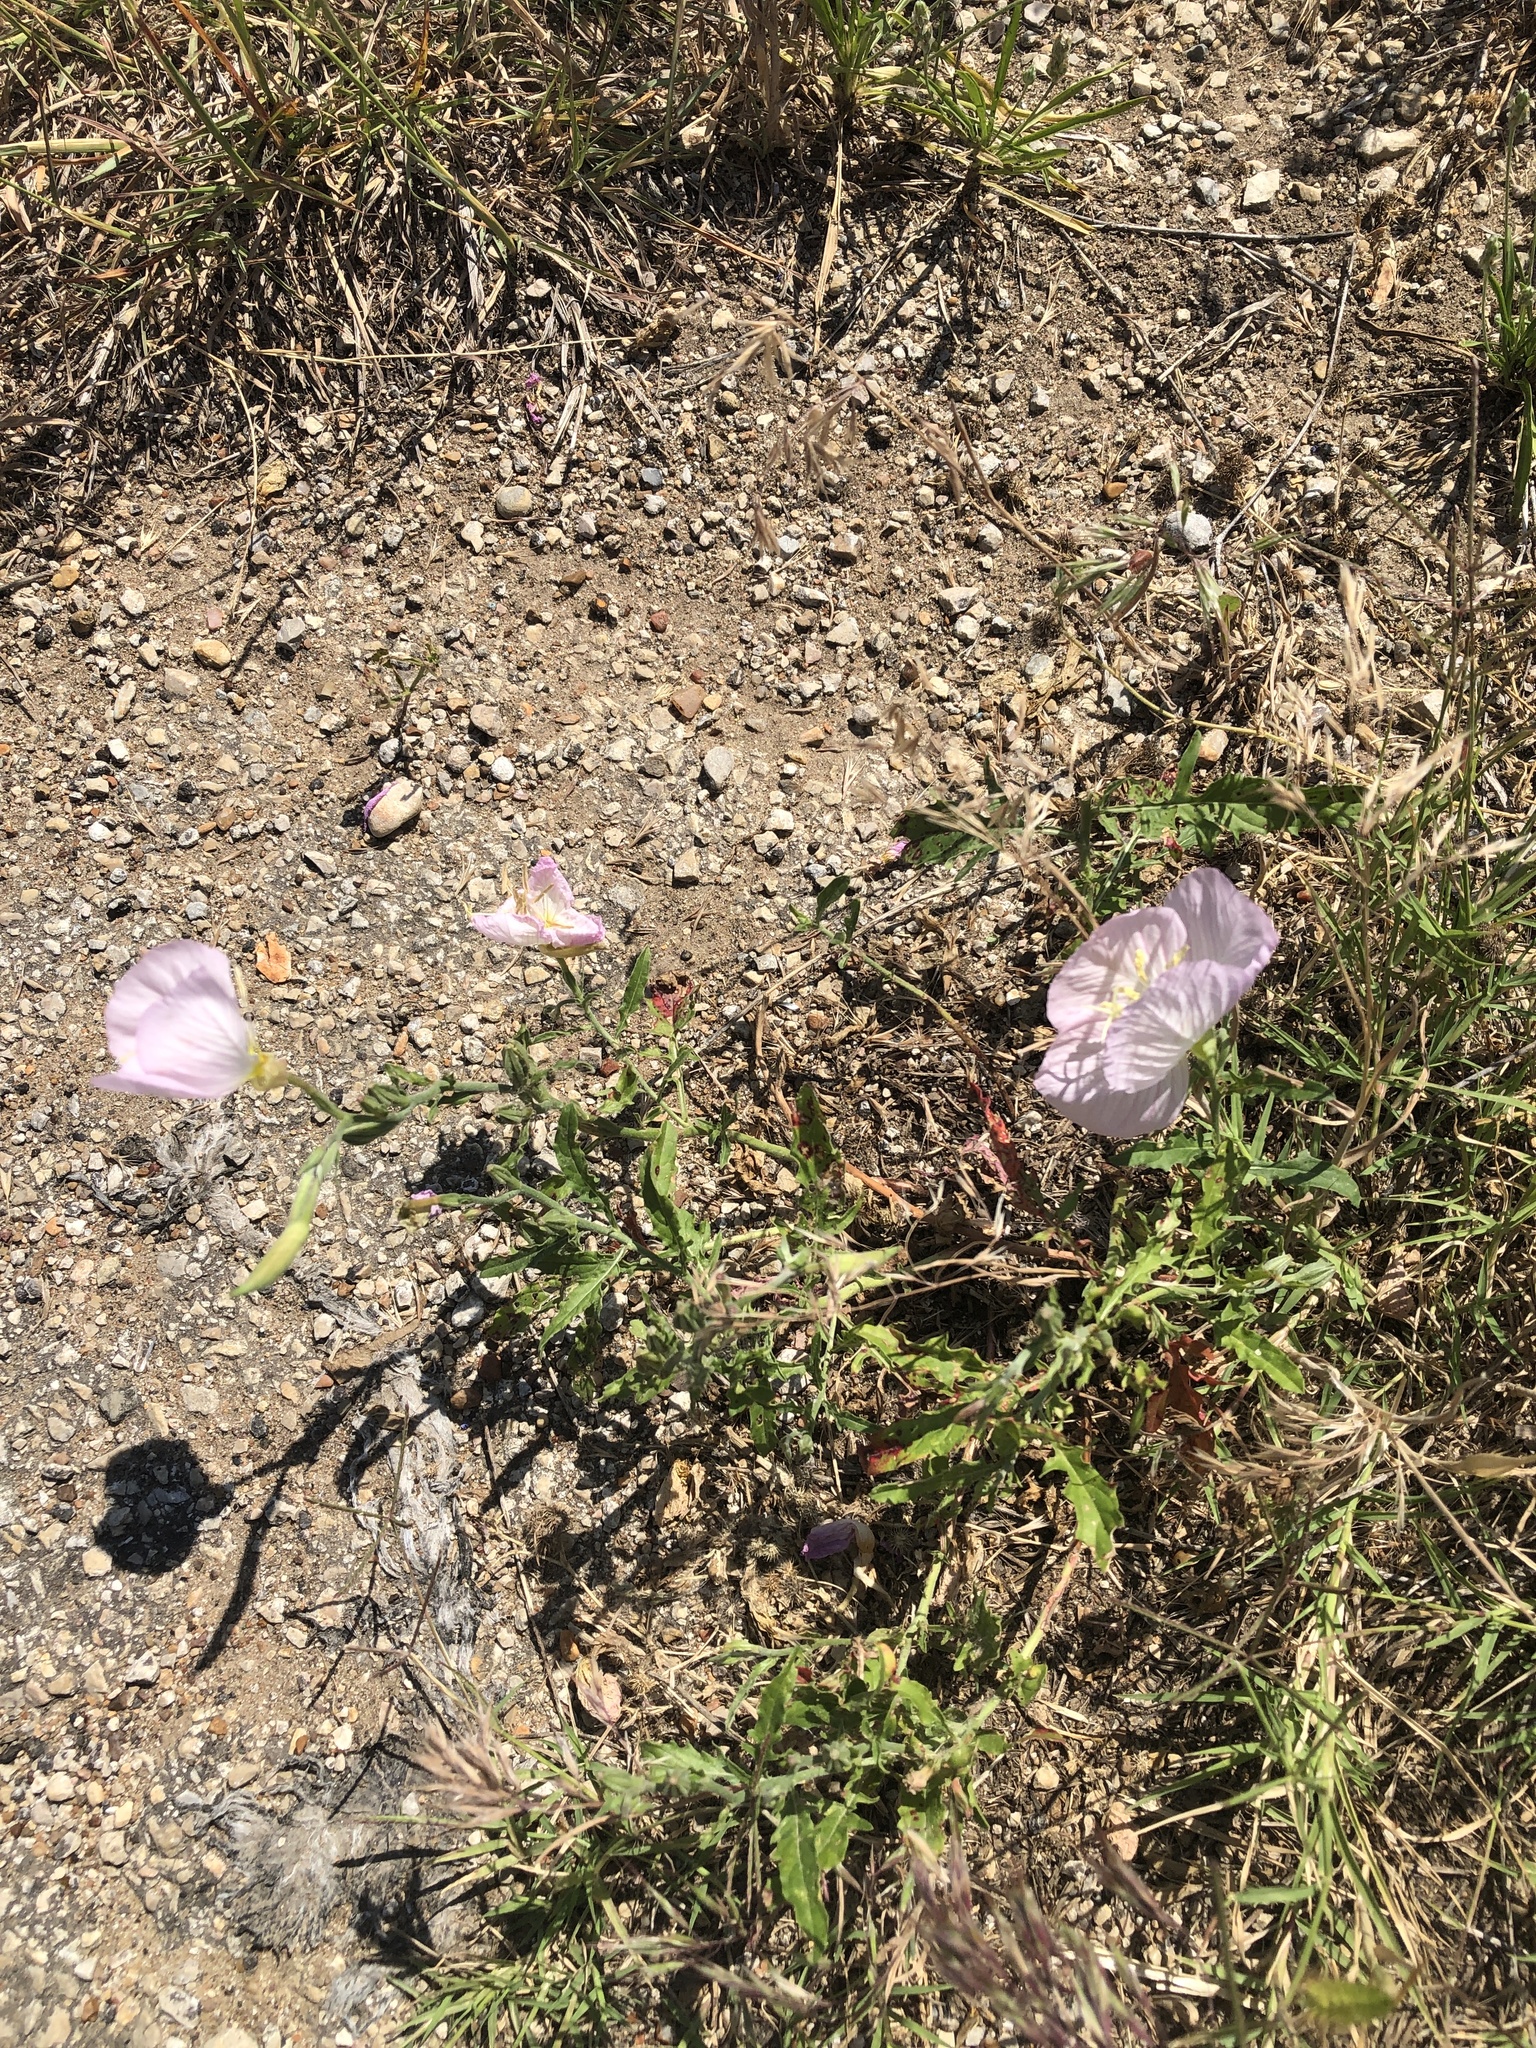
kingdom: Plantae
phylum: Tracheophyta
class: Magnoliopsida
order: Myrtales
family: Onagraceae
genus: Oenothera
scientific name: Oenothera speciosa
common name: White evening-primrose
